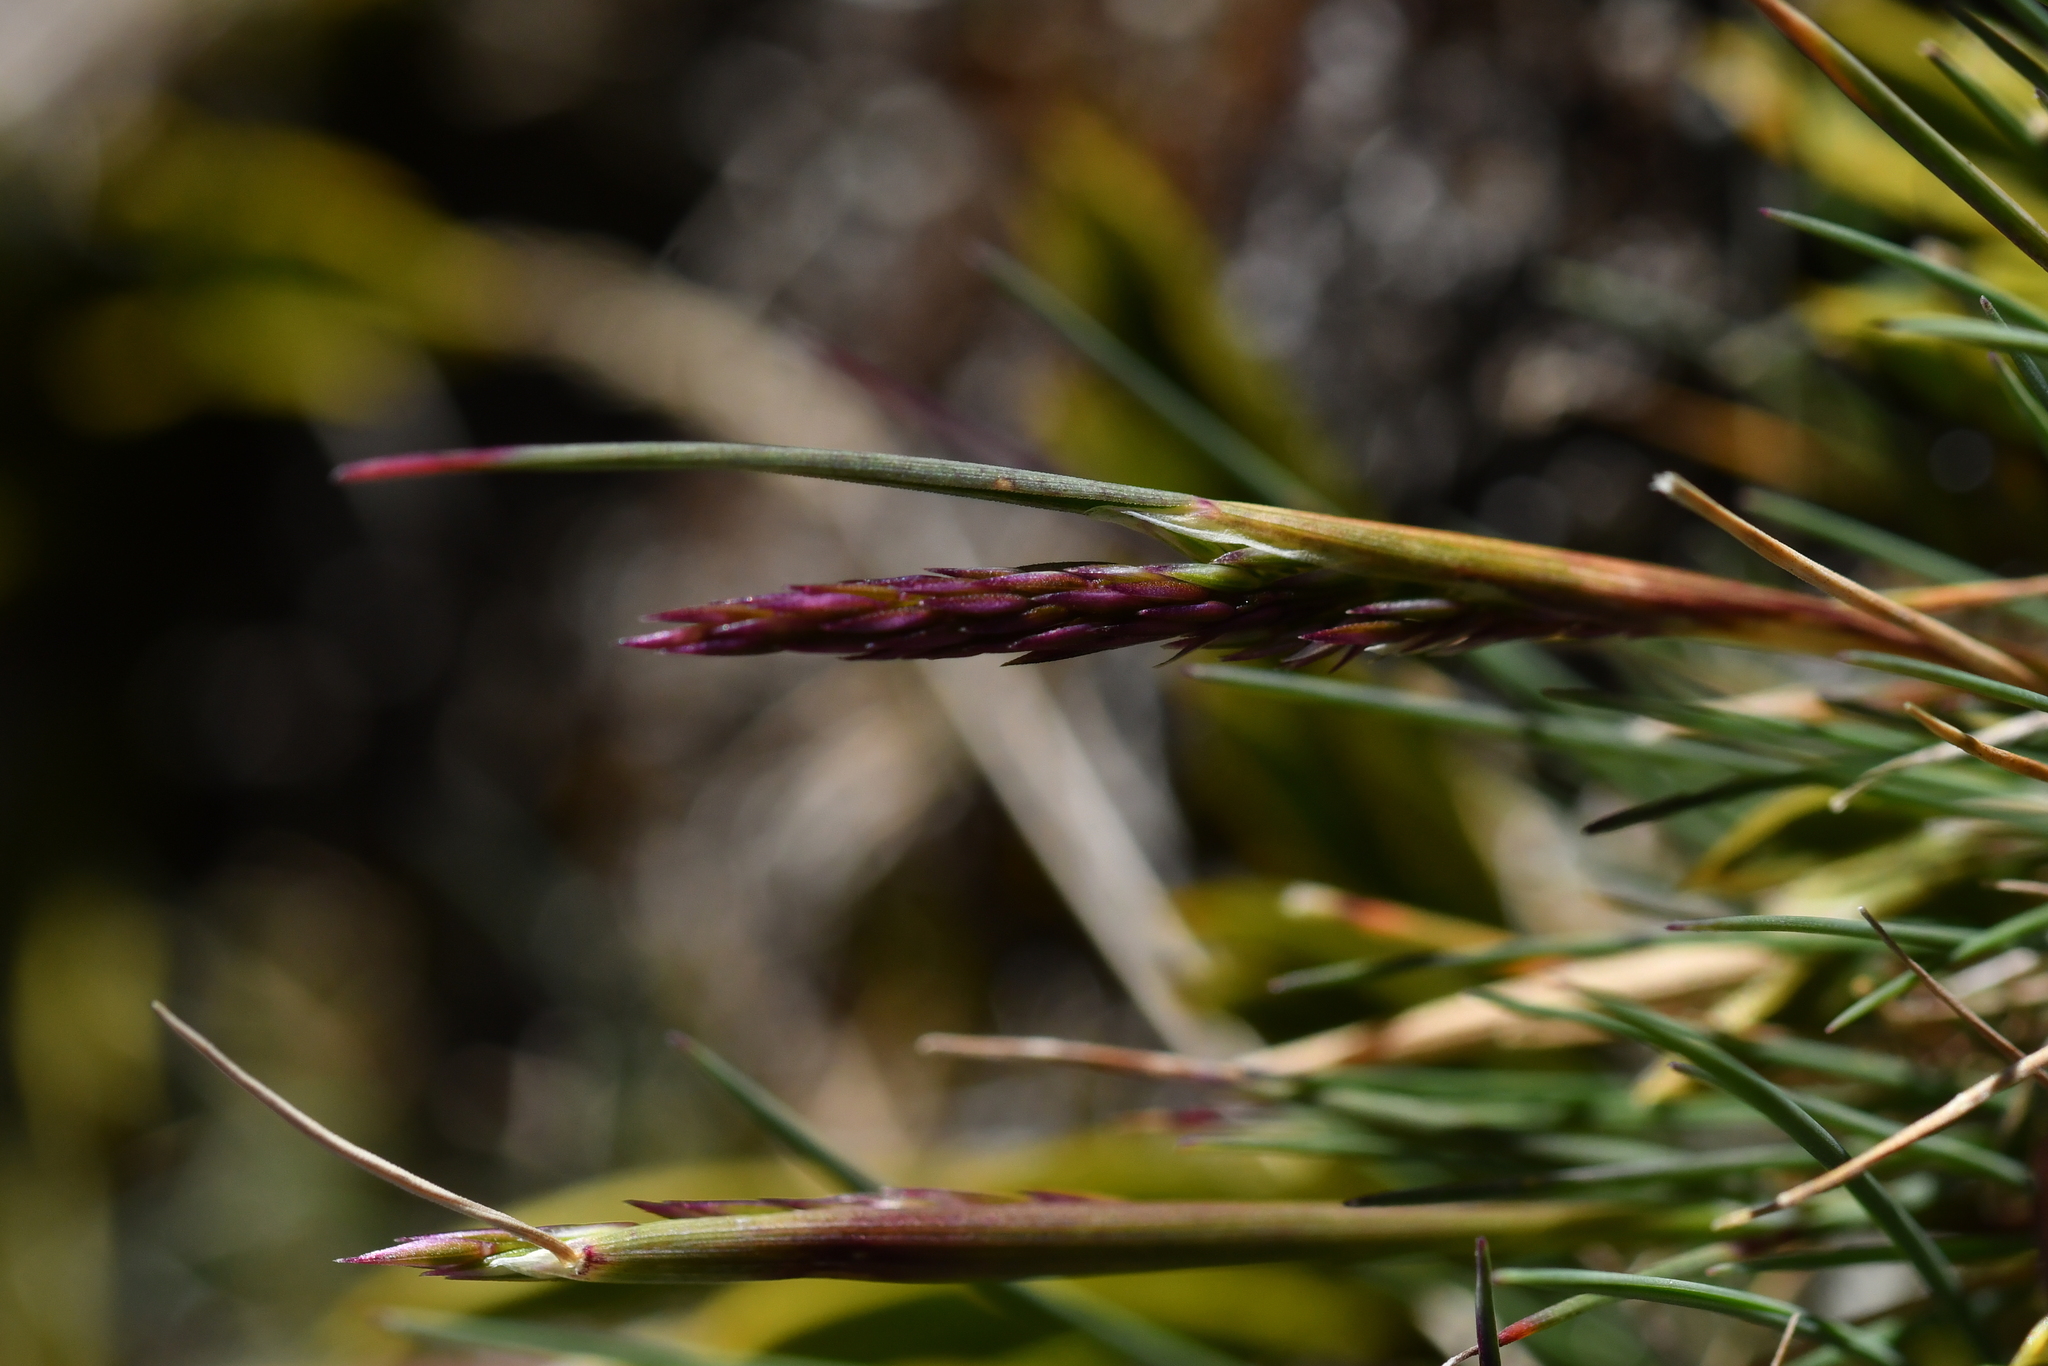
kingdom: Plantae
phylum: Tracheophyta
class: Liliopsida
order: Poales
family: Poaceae
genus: Agrostis
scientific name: Agrostis muelleriana
